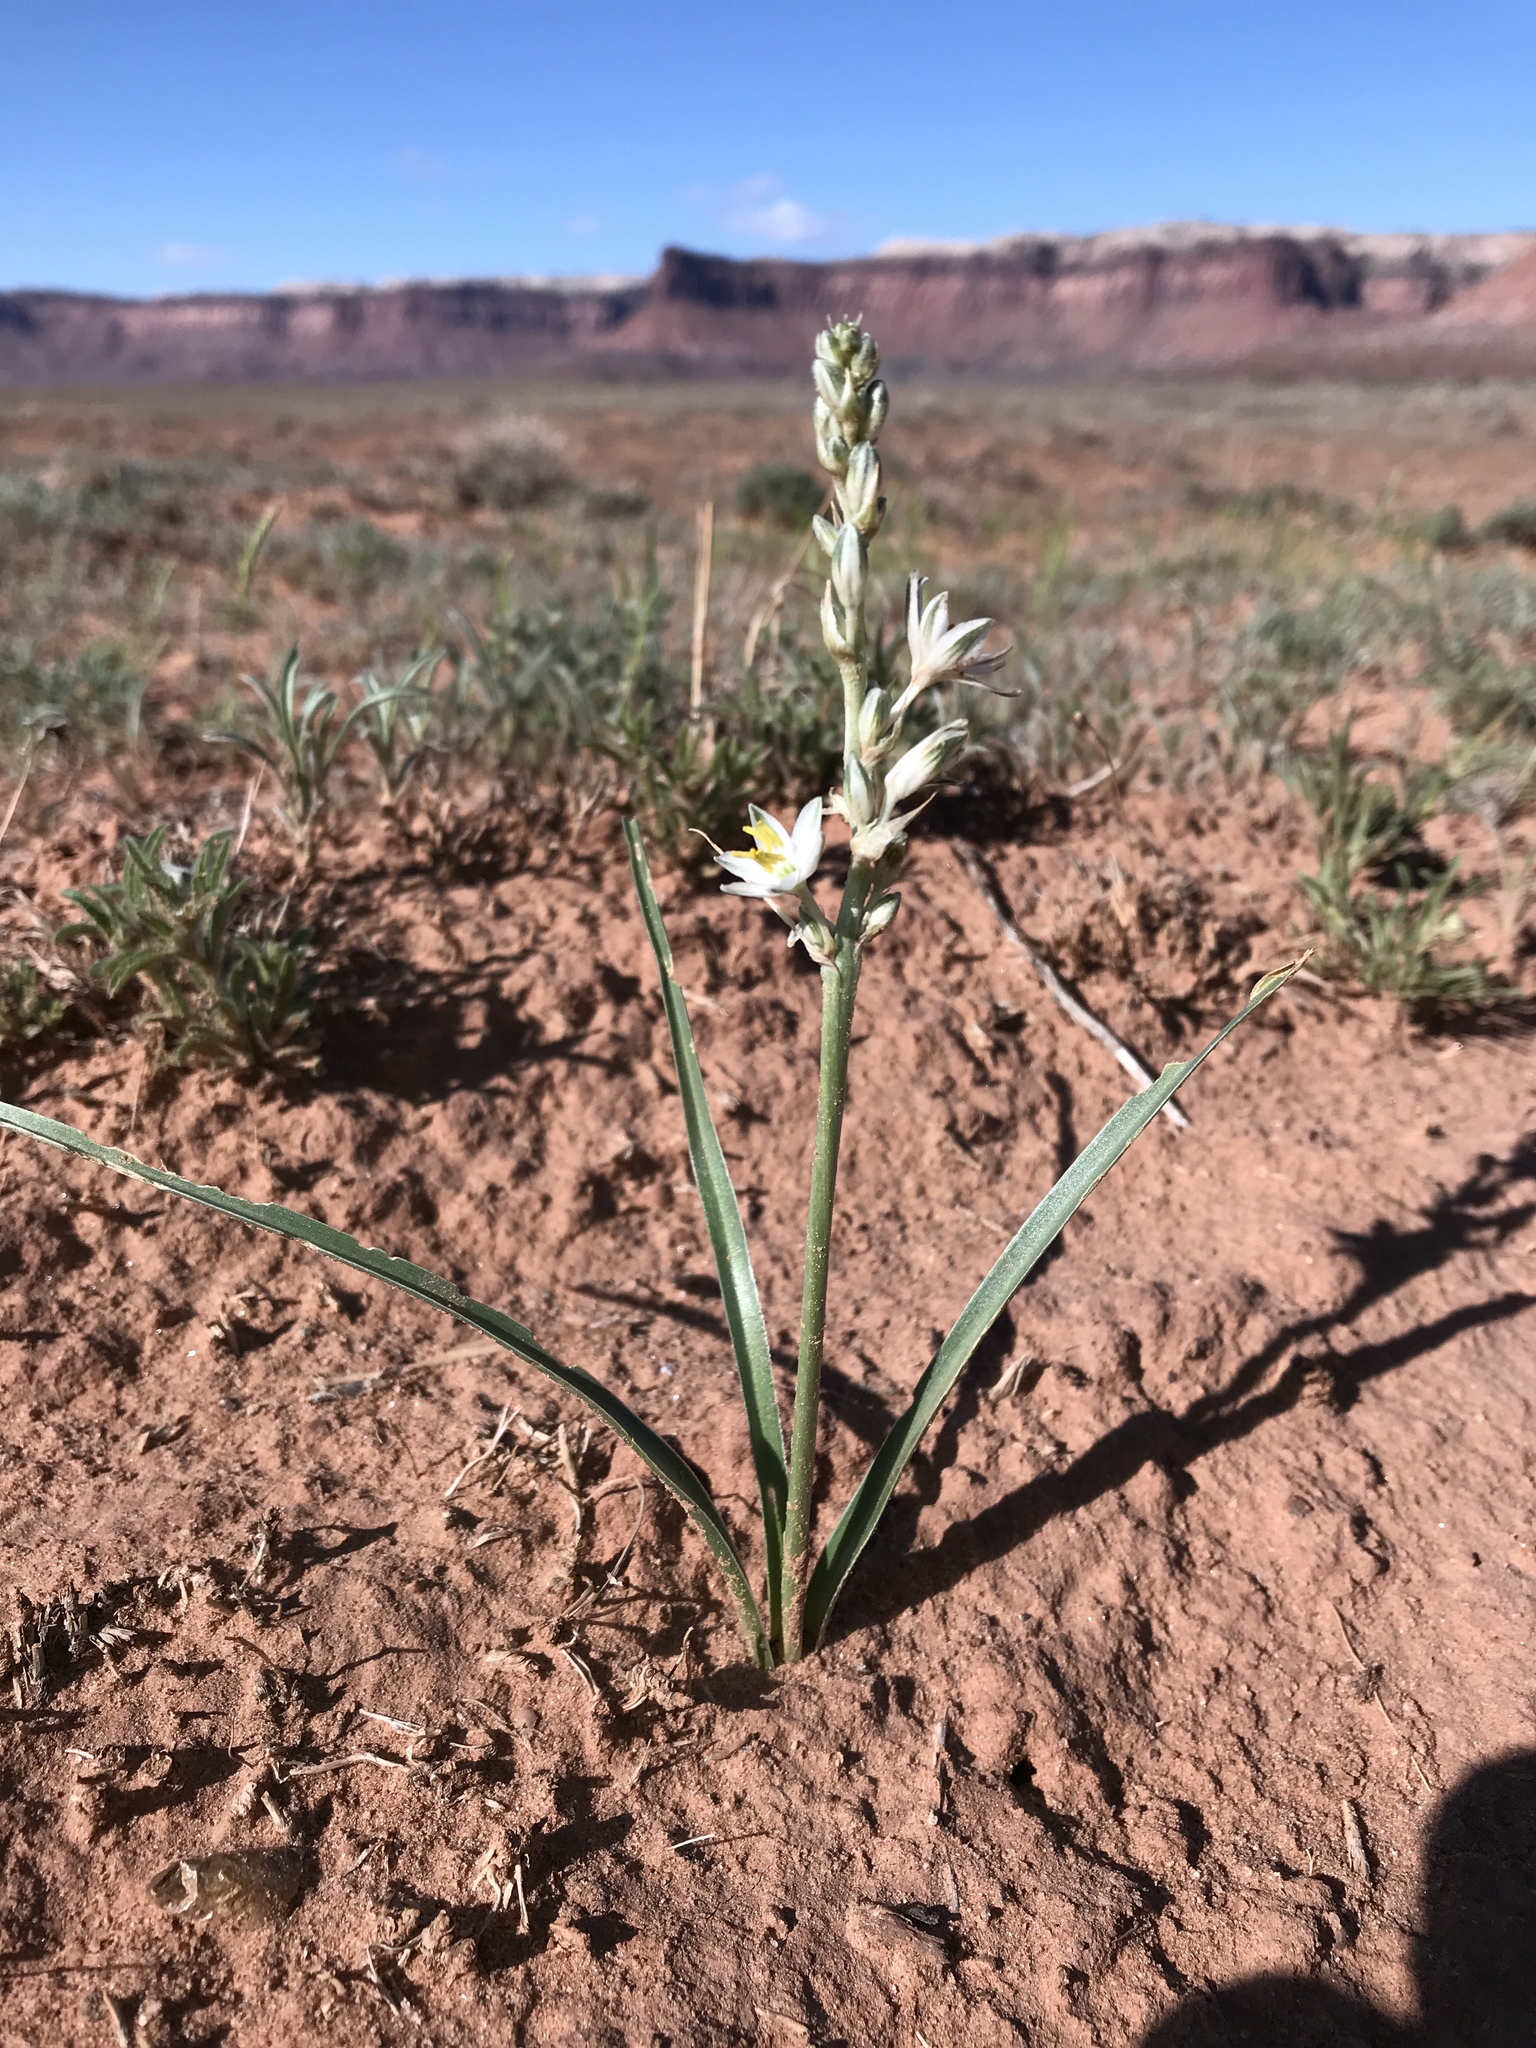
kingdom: Plantae
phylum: Tracheophyta
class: Liliopsida
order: Asparagales
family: Asparagaceae
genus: Eremocrinum
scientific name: Eremocrinum albomarginatum
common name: Sand-lily
